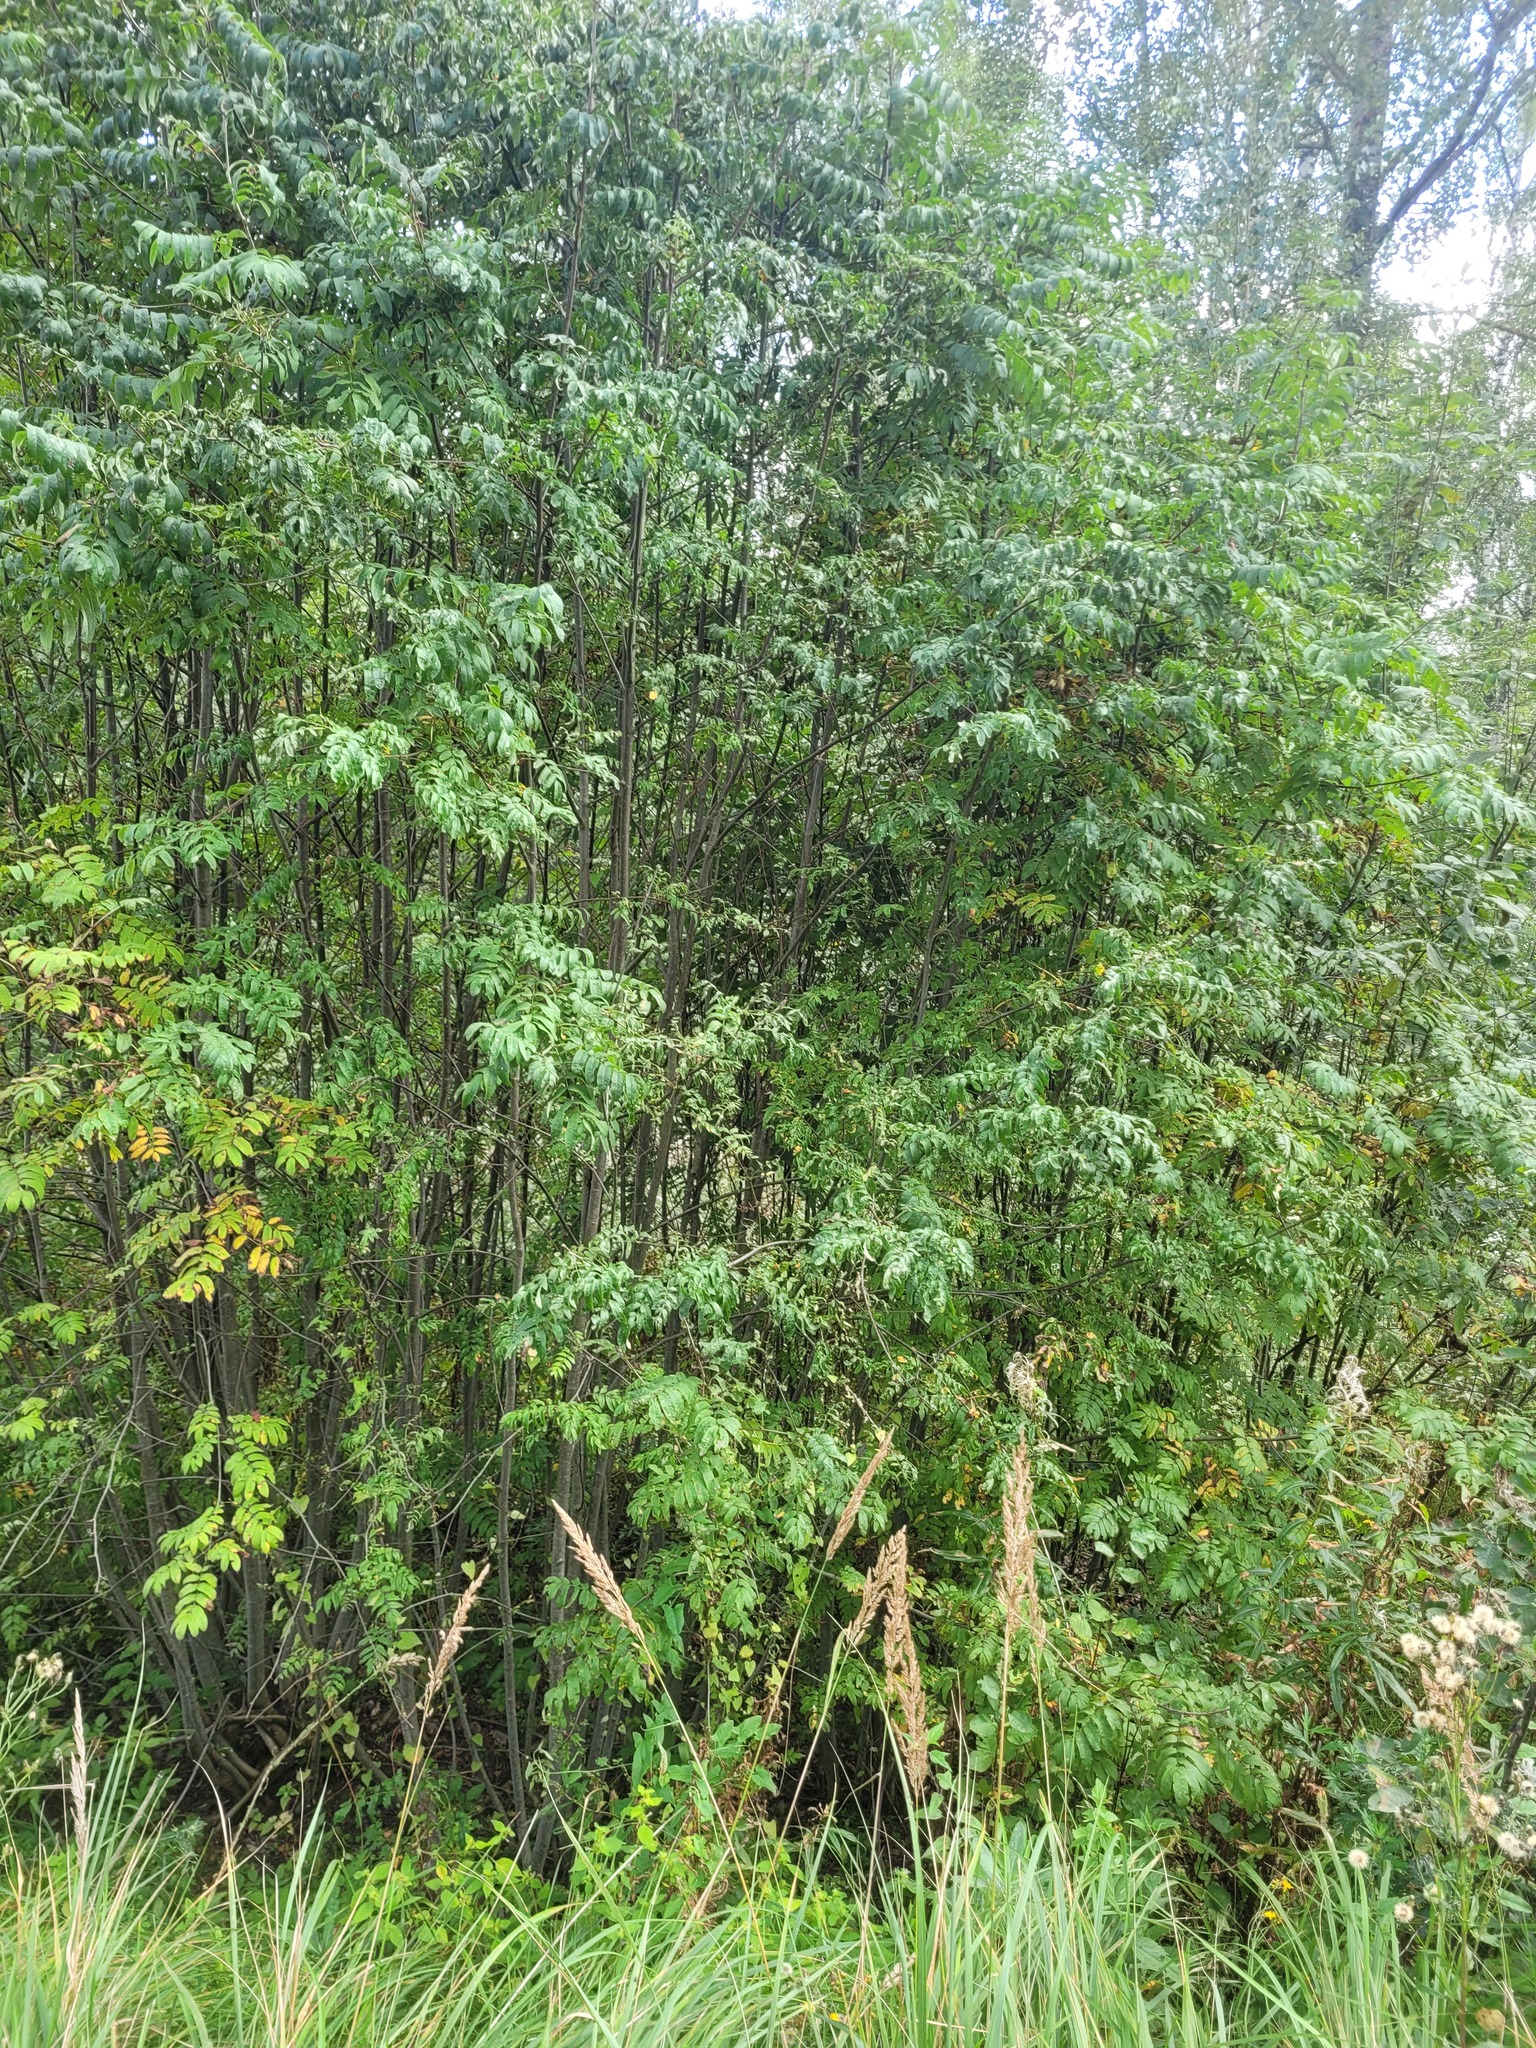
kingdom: Plantae
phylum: Tracheophyta
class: Magnoliopsida
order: Rosales
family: Rosaceae
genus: Sorbus
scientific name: Sorbus aucuparia
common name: Rowan
